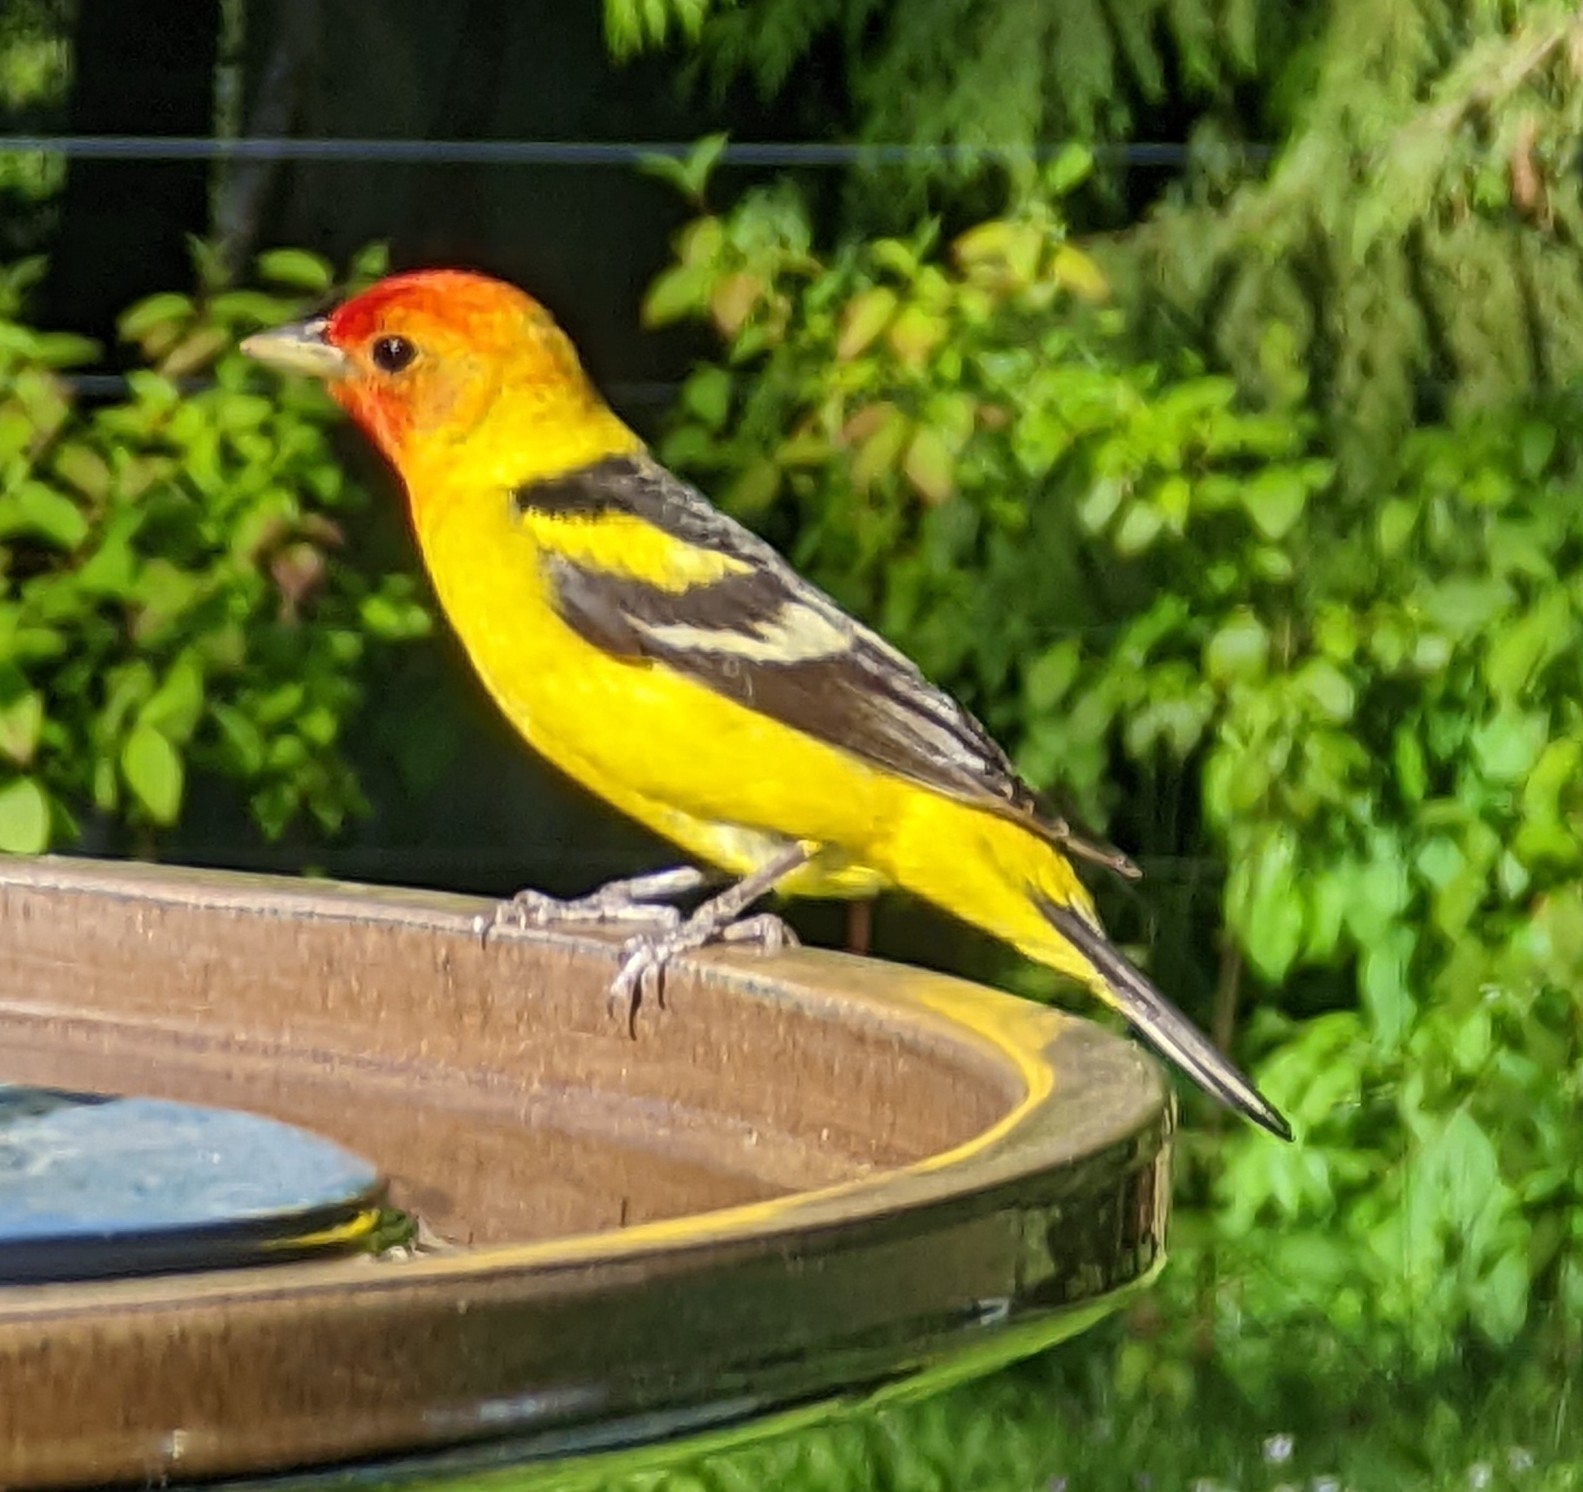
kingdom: Animalia
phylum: Chordata
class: Aves
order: Passeriformes
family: Cardinalidae
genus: Piranga
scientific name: Piranga ludoviciana
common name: Western tanager
